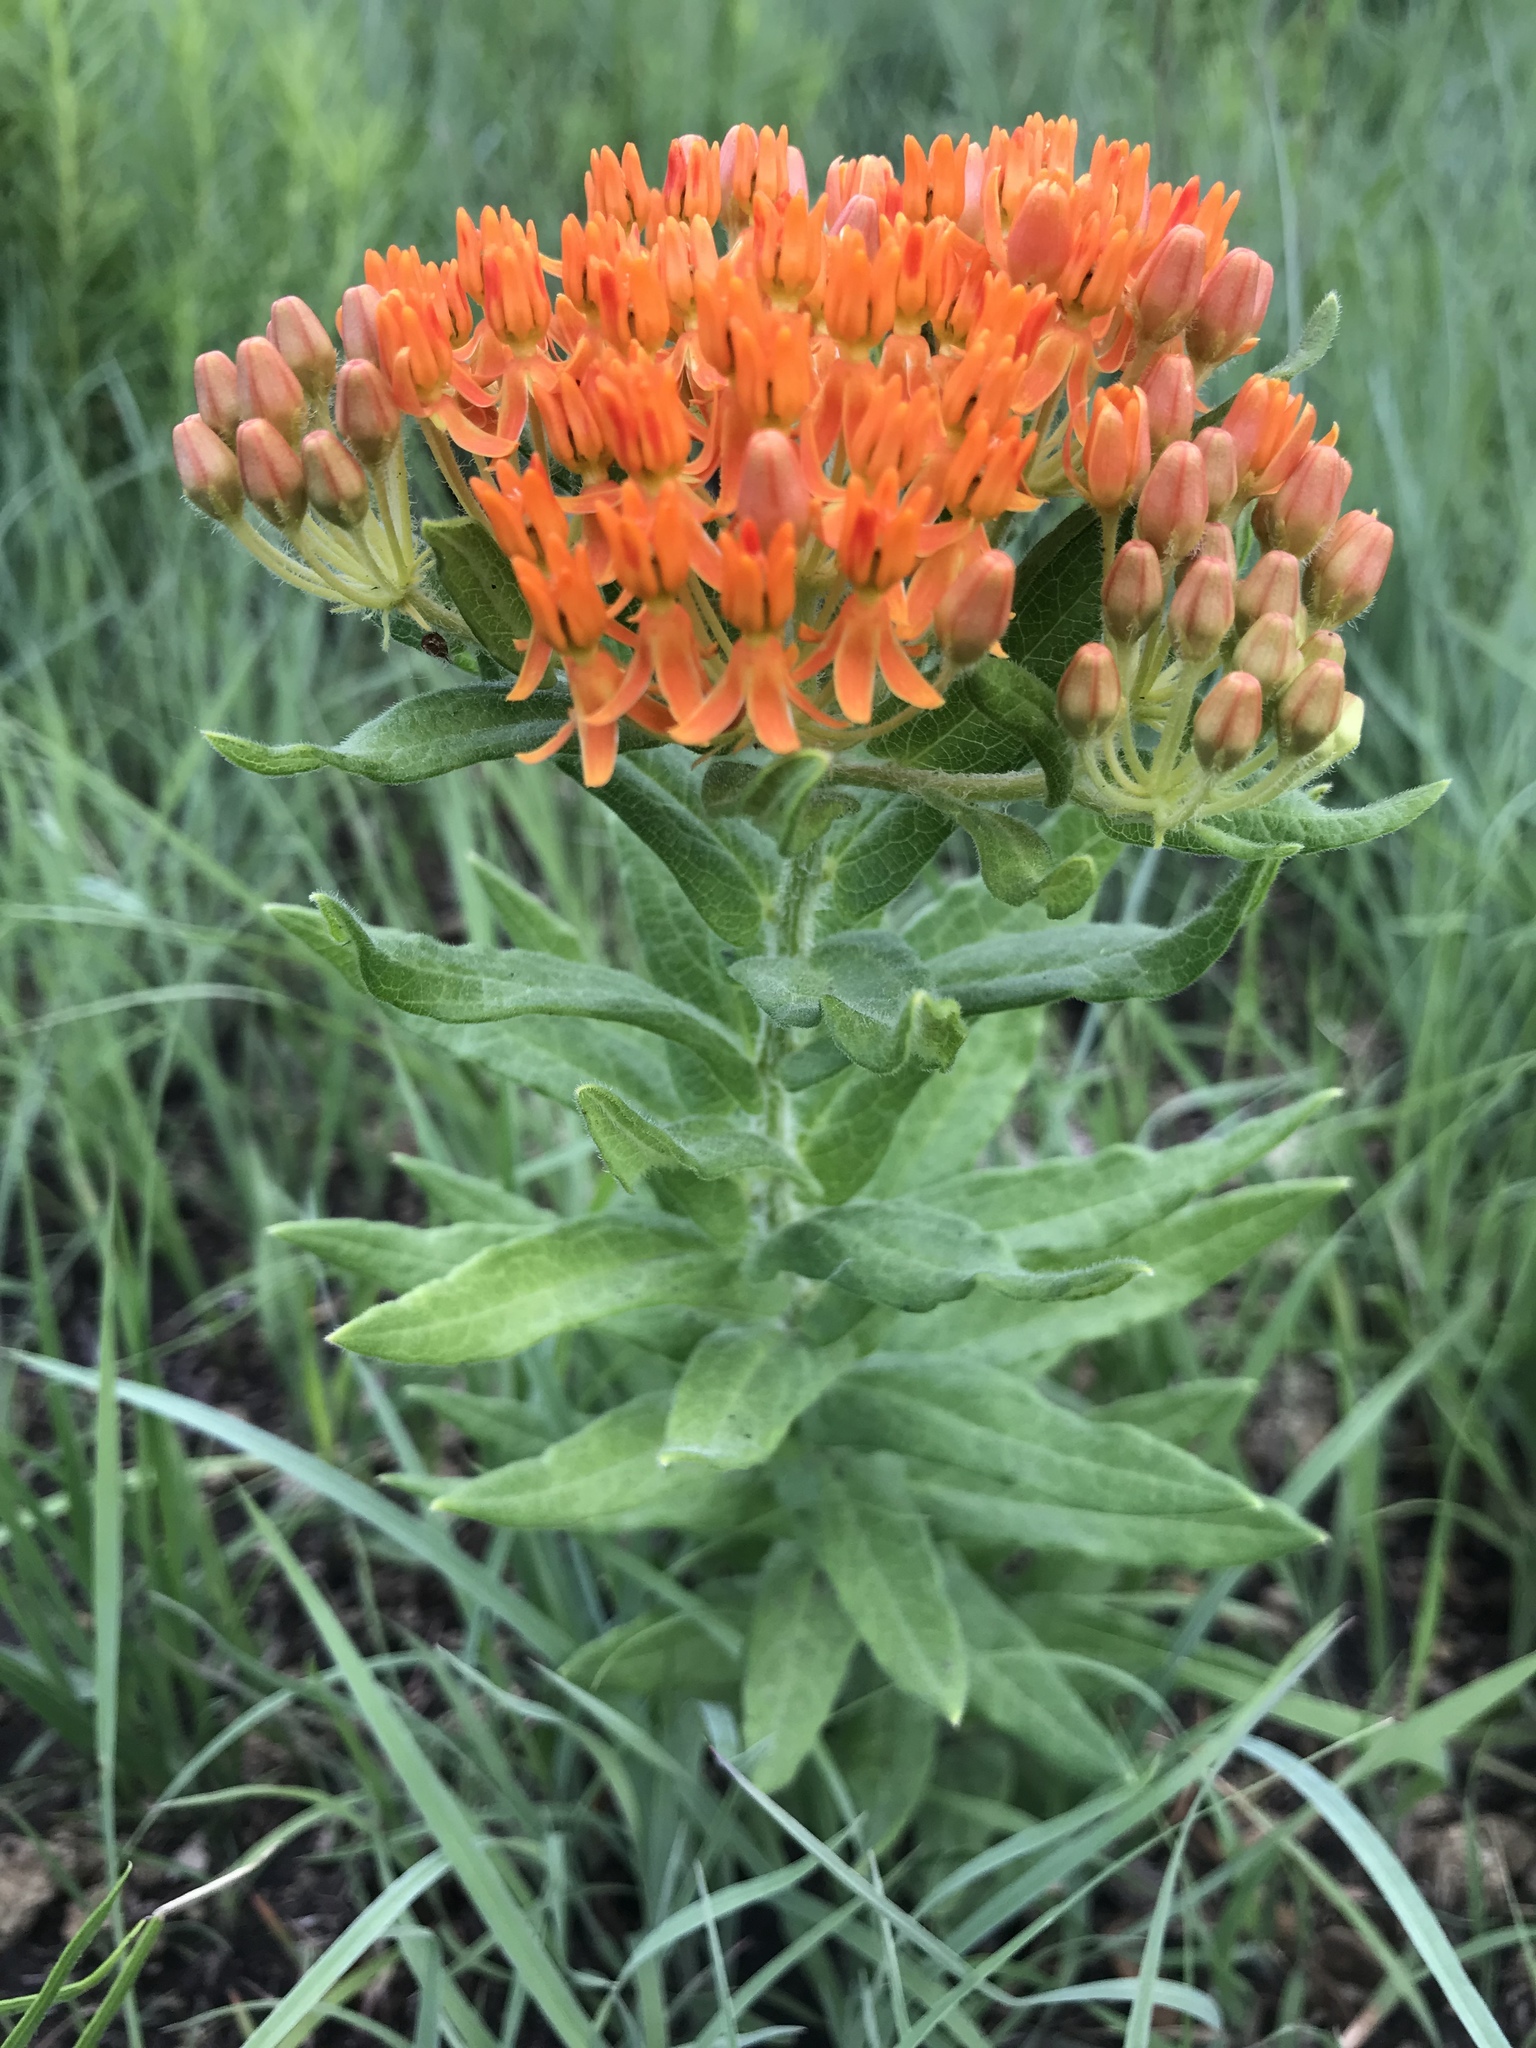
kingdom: Plantae
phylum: Tracheophyta
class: Magnoliopsida
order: Gentianales
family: Apocynaceae
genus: Asclepias
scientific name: Asclepias tuberosa
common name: Butterfly milkweed
